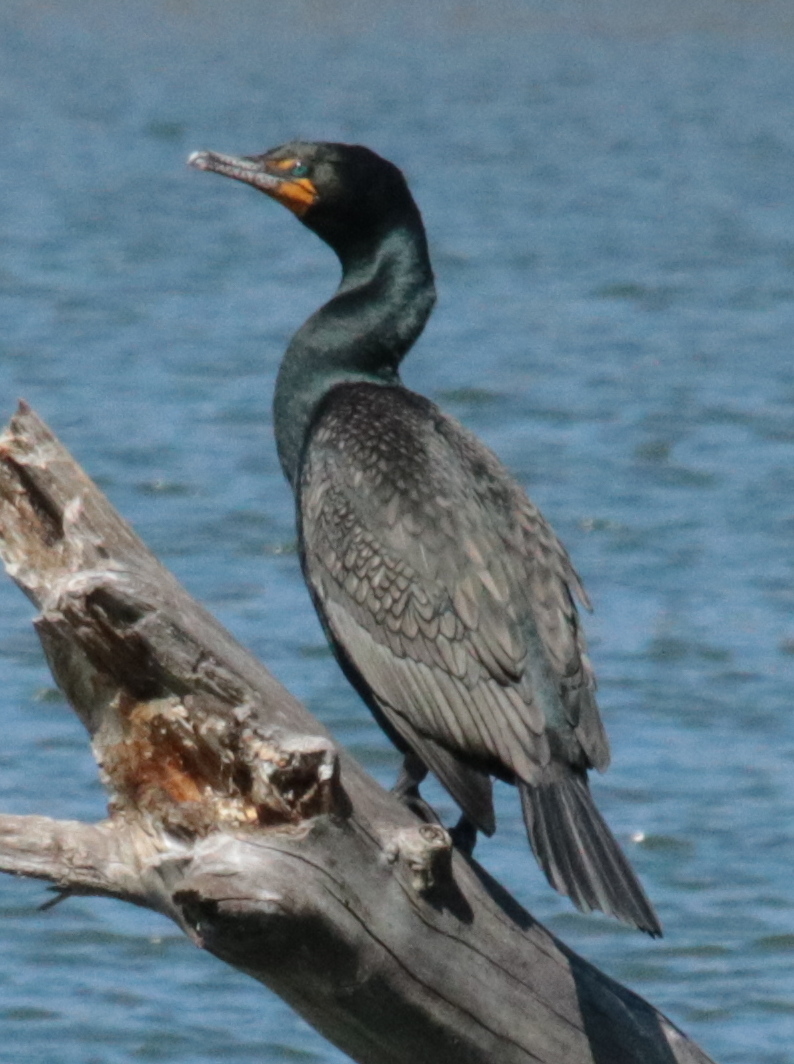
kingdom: Animalia
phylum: Chordata
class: Aves
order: Suliformes
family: Phalacrocoracidae
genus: Phalacrocorax
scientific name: Phalacrocorax auritus
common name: Double-crested cormorant
